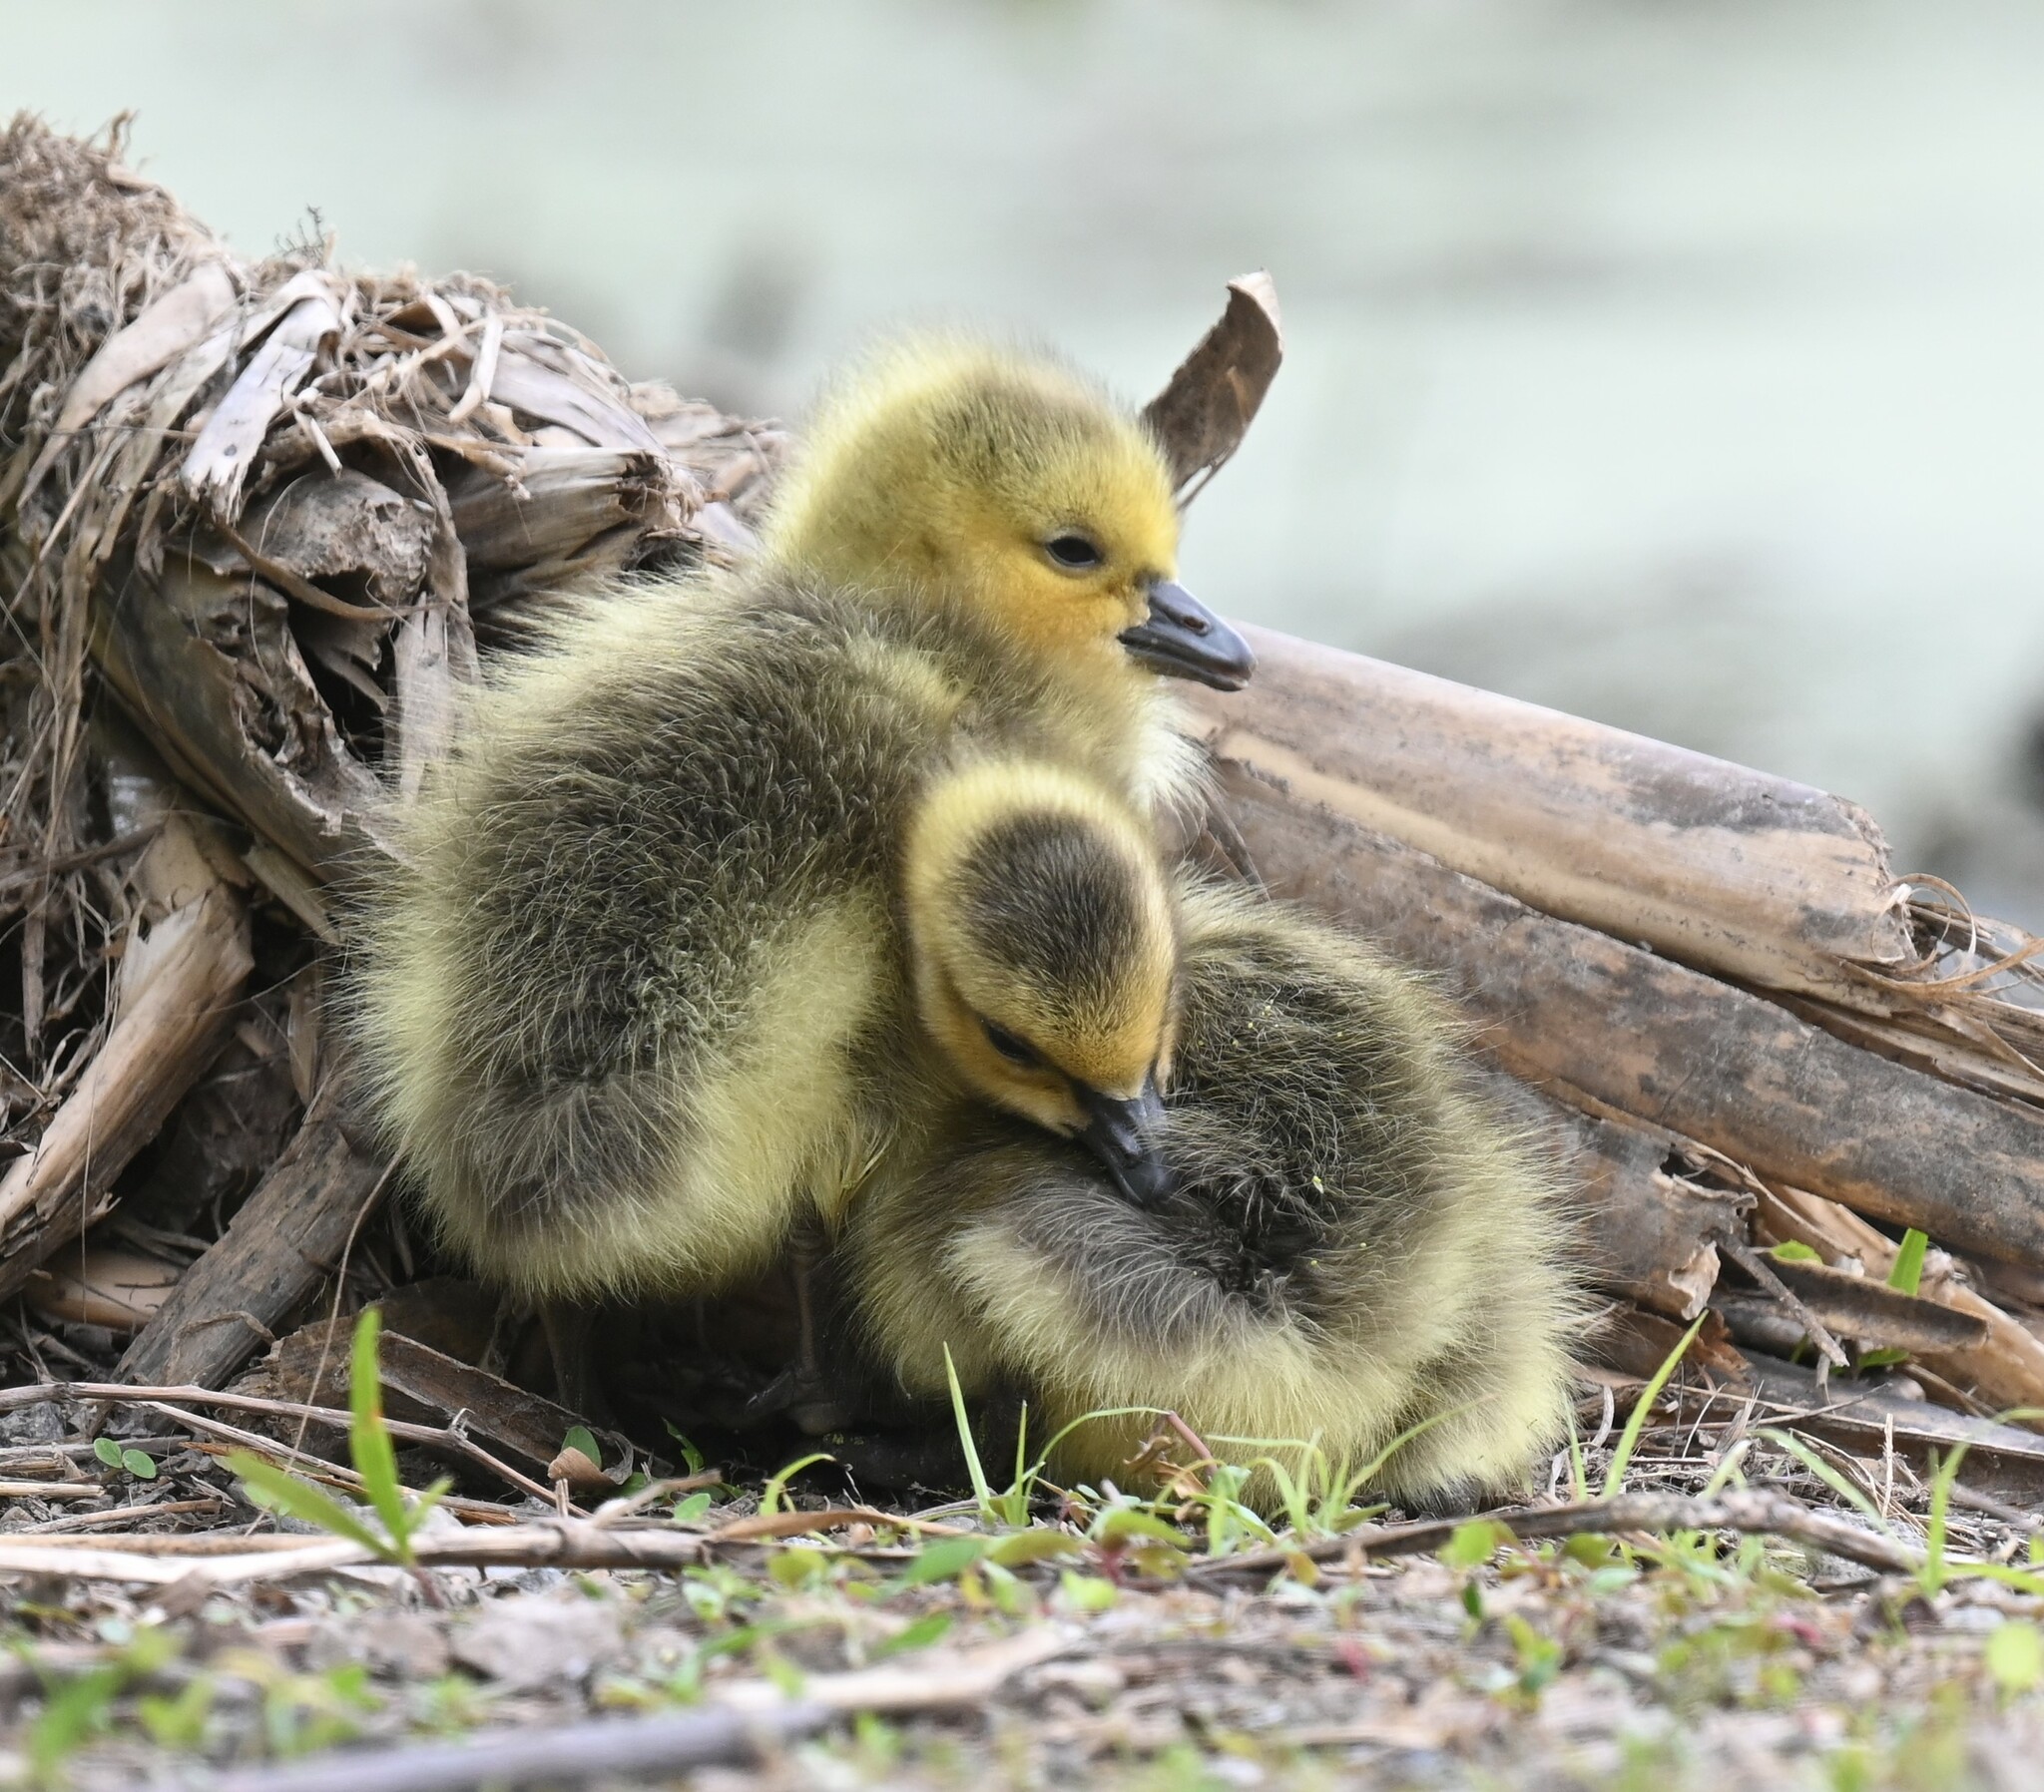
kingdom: Animalia
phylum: Chordata
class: Aves
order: Anseriformes
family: Anatidae
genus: Branta
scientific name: Branta canadensis
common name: Canada goose
